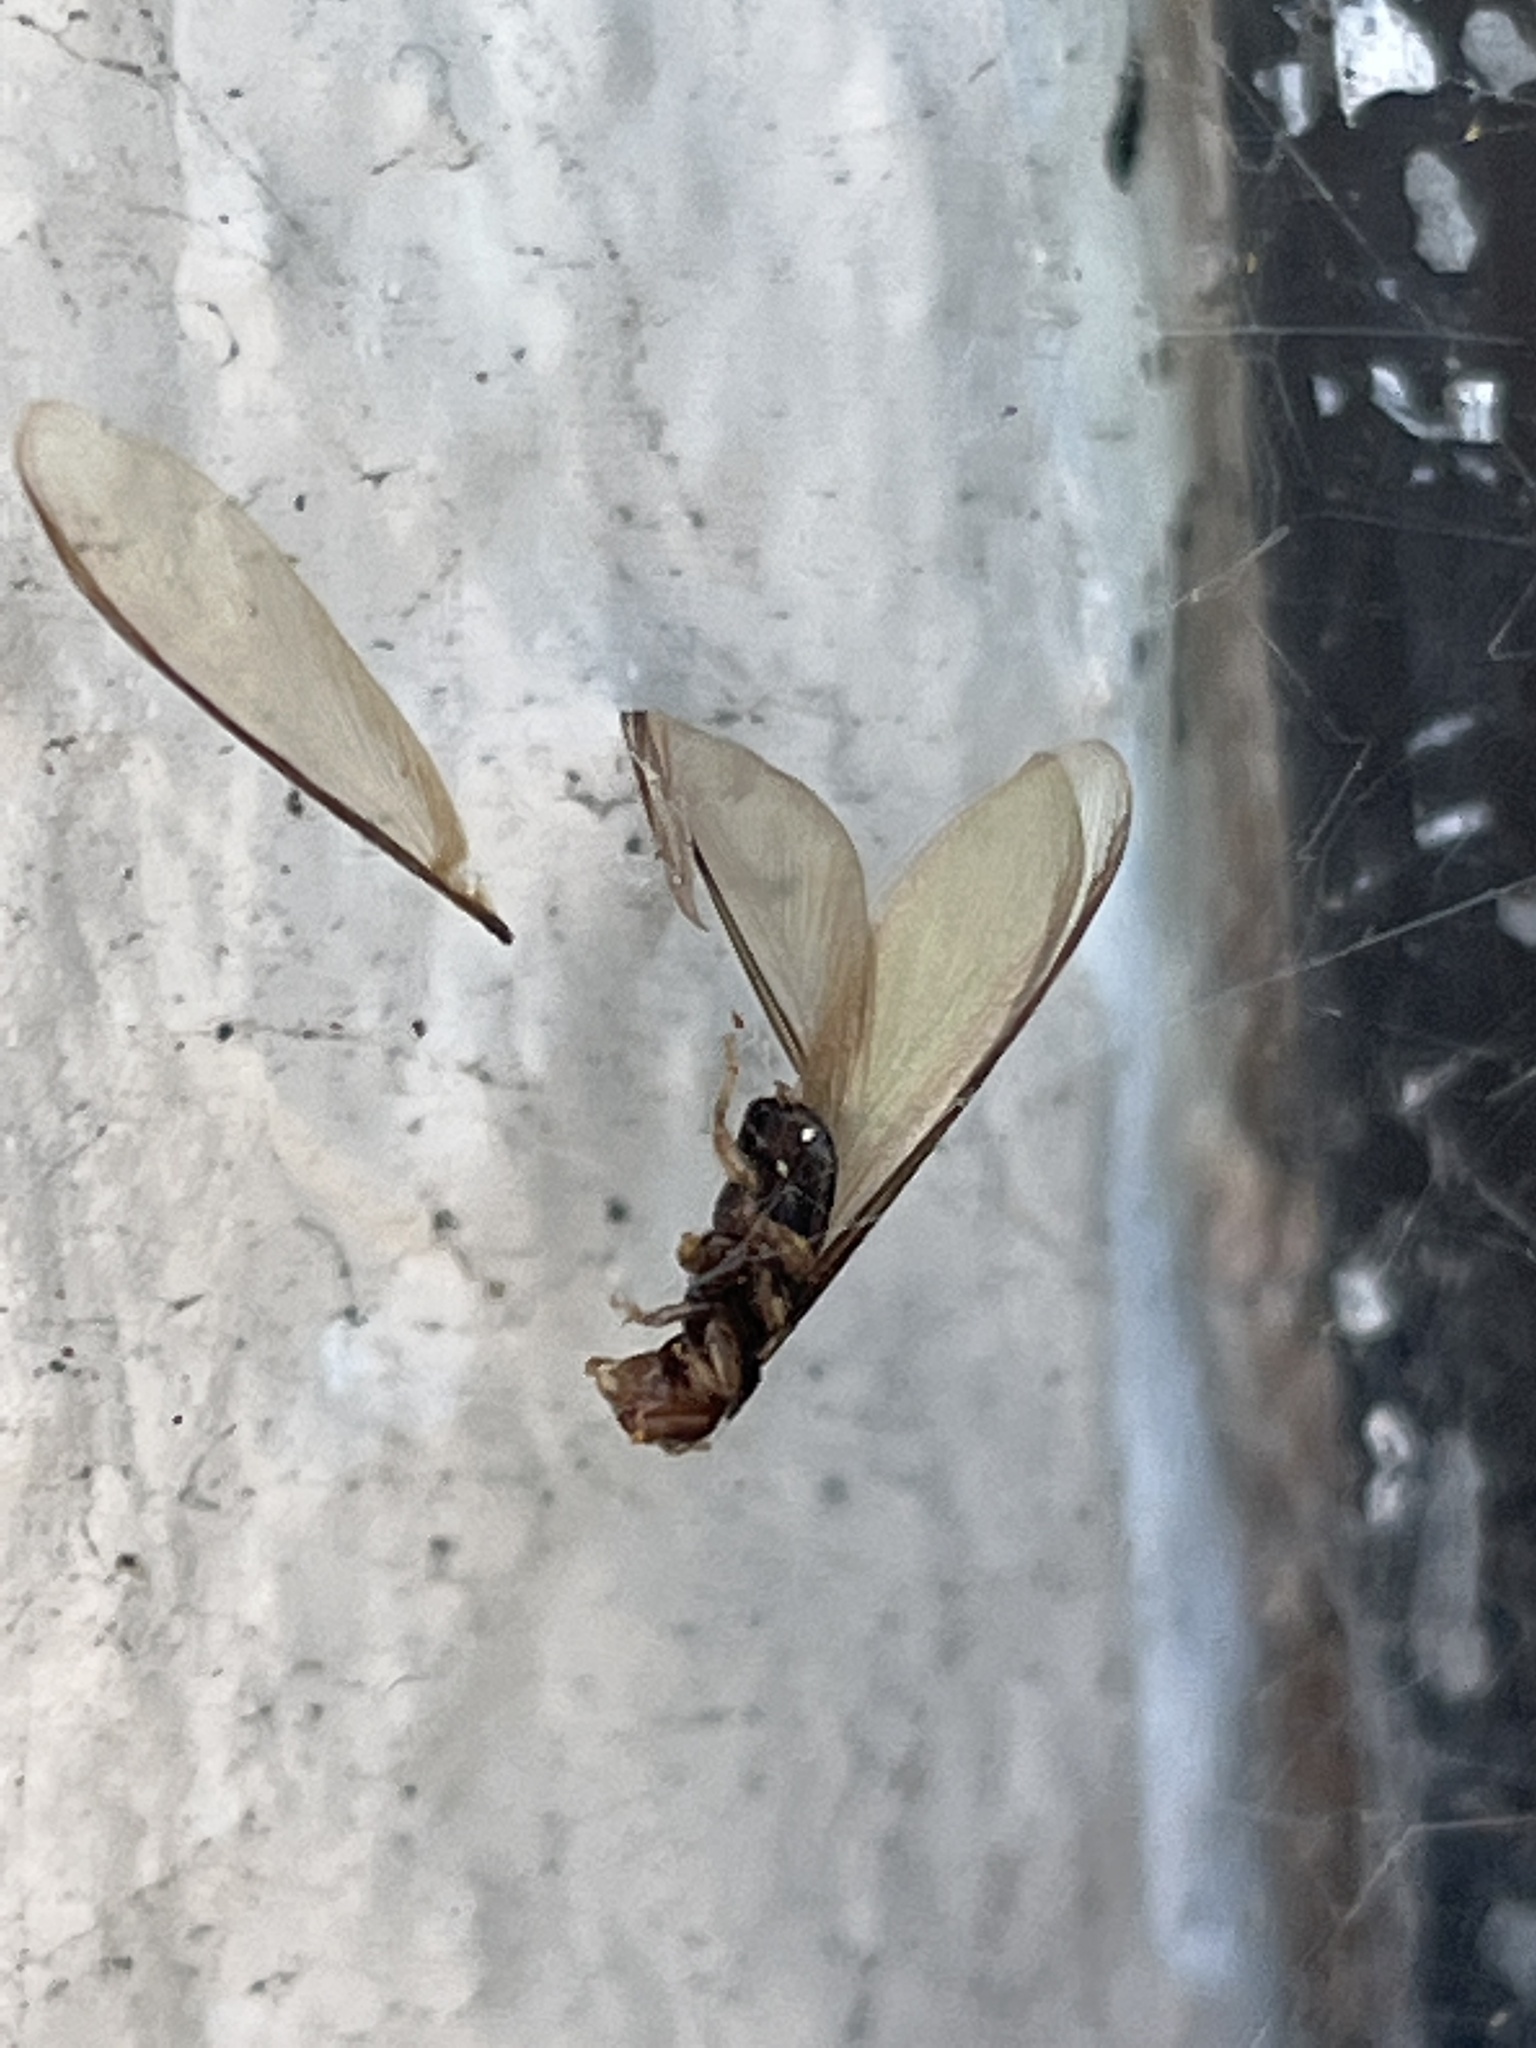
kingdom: Animalia
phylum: Arthropoda
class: Insecta
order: Blattodea
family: Kalotermitidae
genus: Incisitermes
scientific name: Incisitermes minor
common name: Termite
